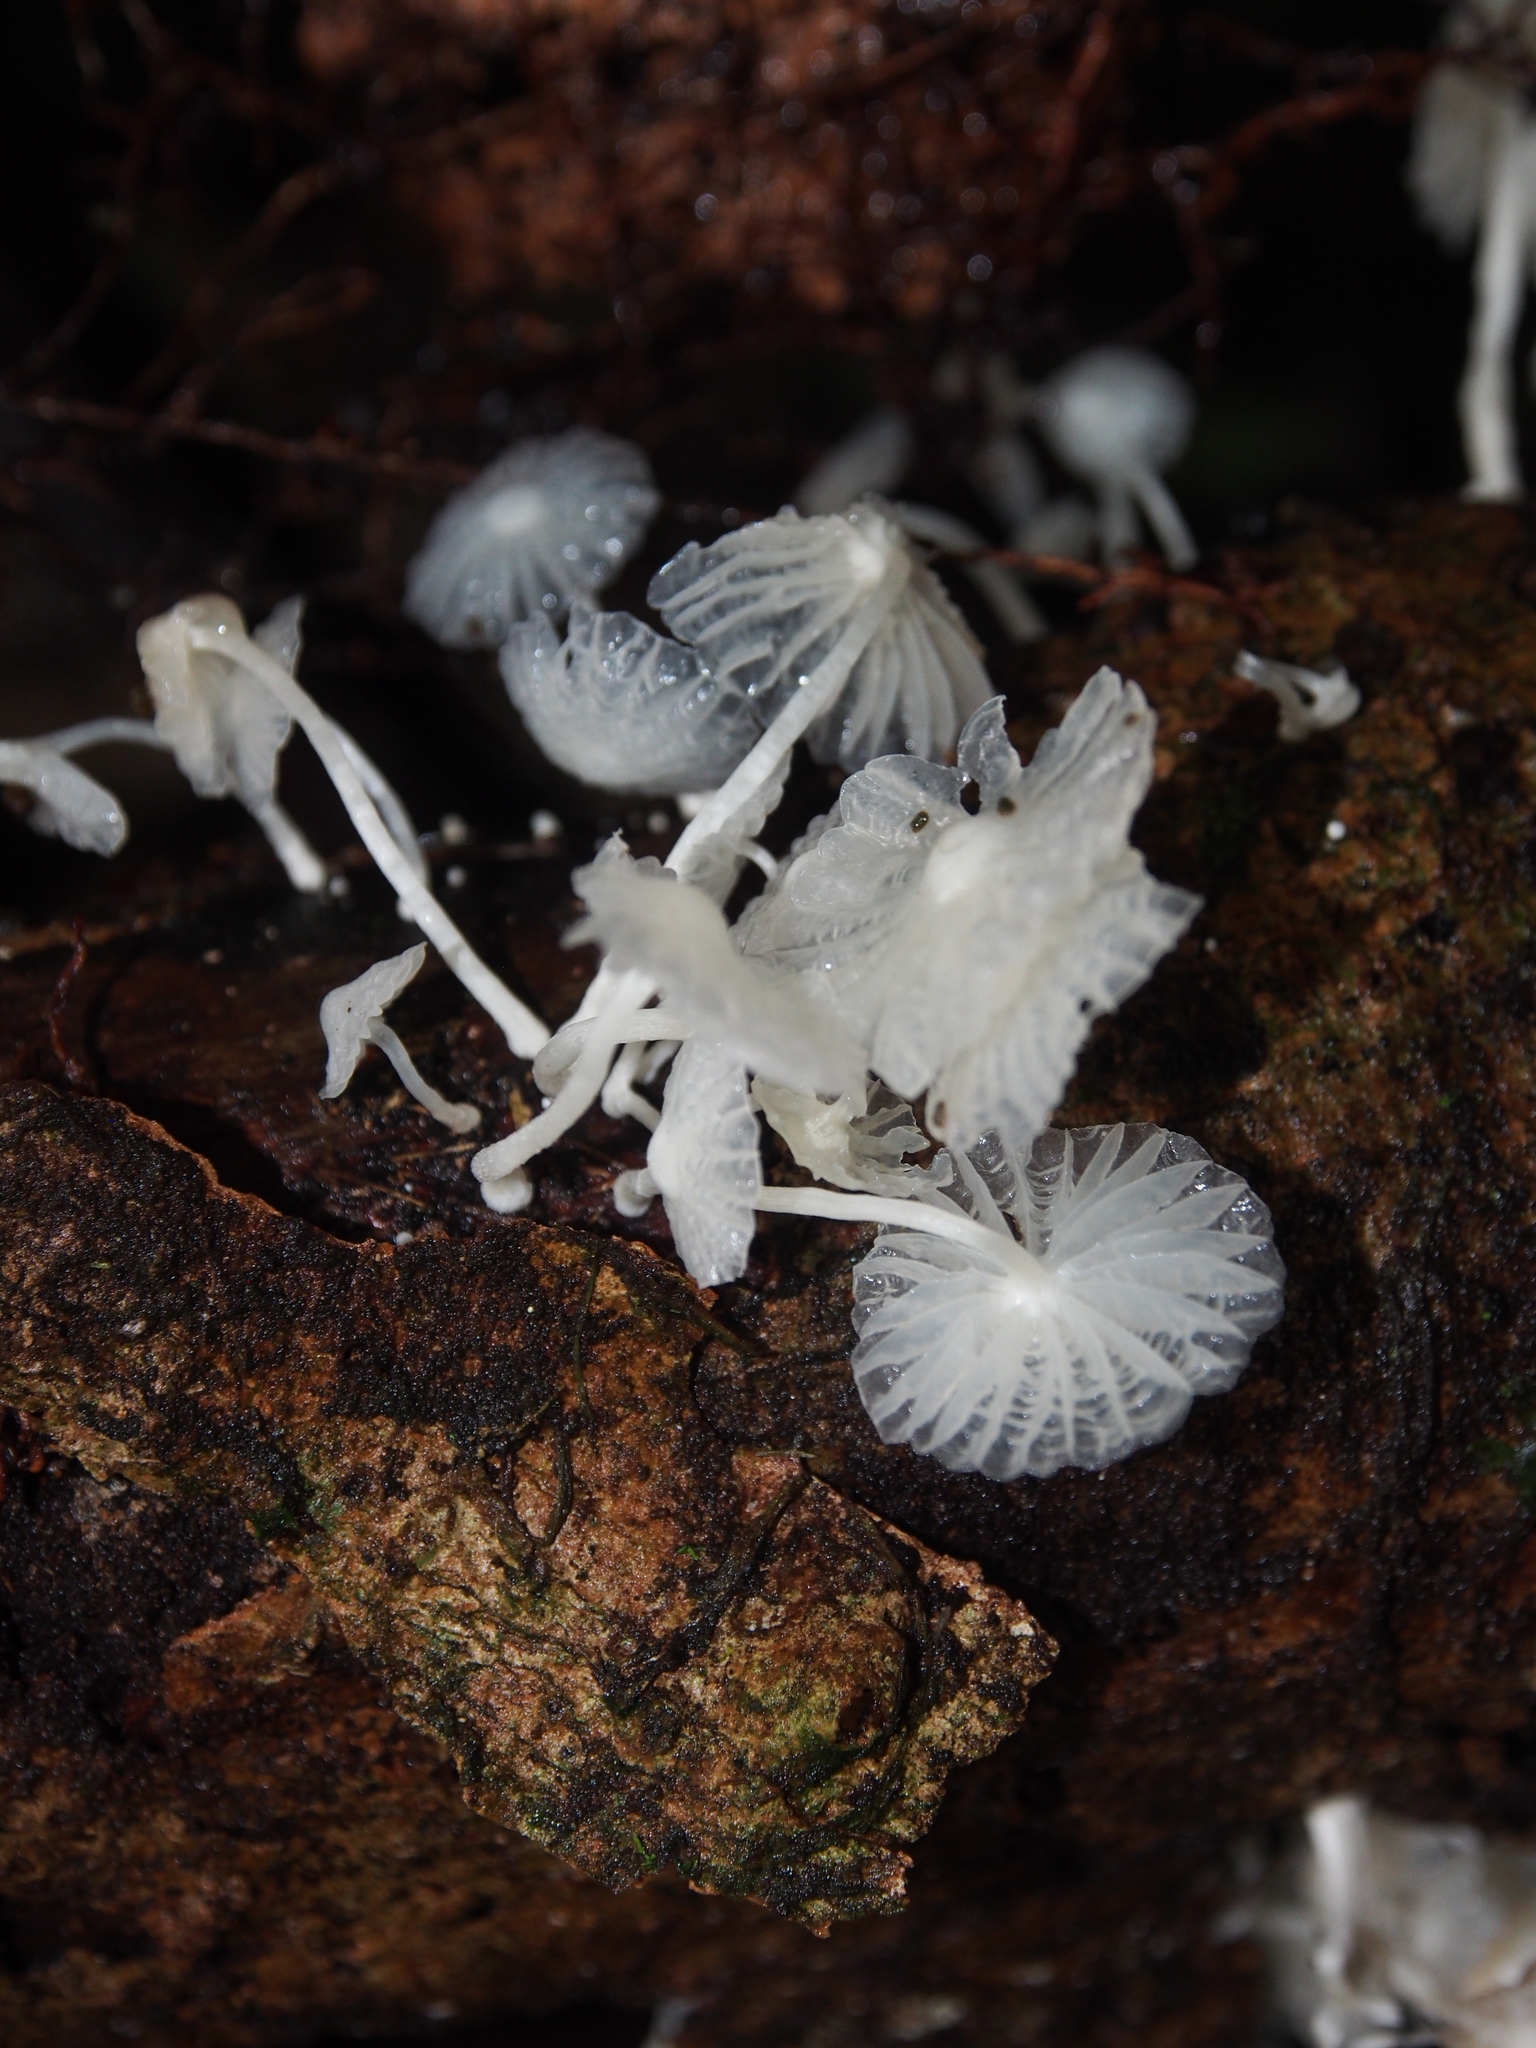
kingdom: Fungi
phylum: Basidiomycota
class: Agaricomycetes
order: Agaricales
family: Omphalotaceae
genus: Marasmiellus
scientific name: Marasmiellus volvatus
